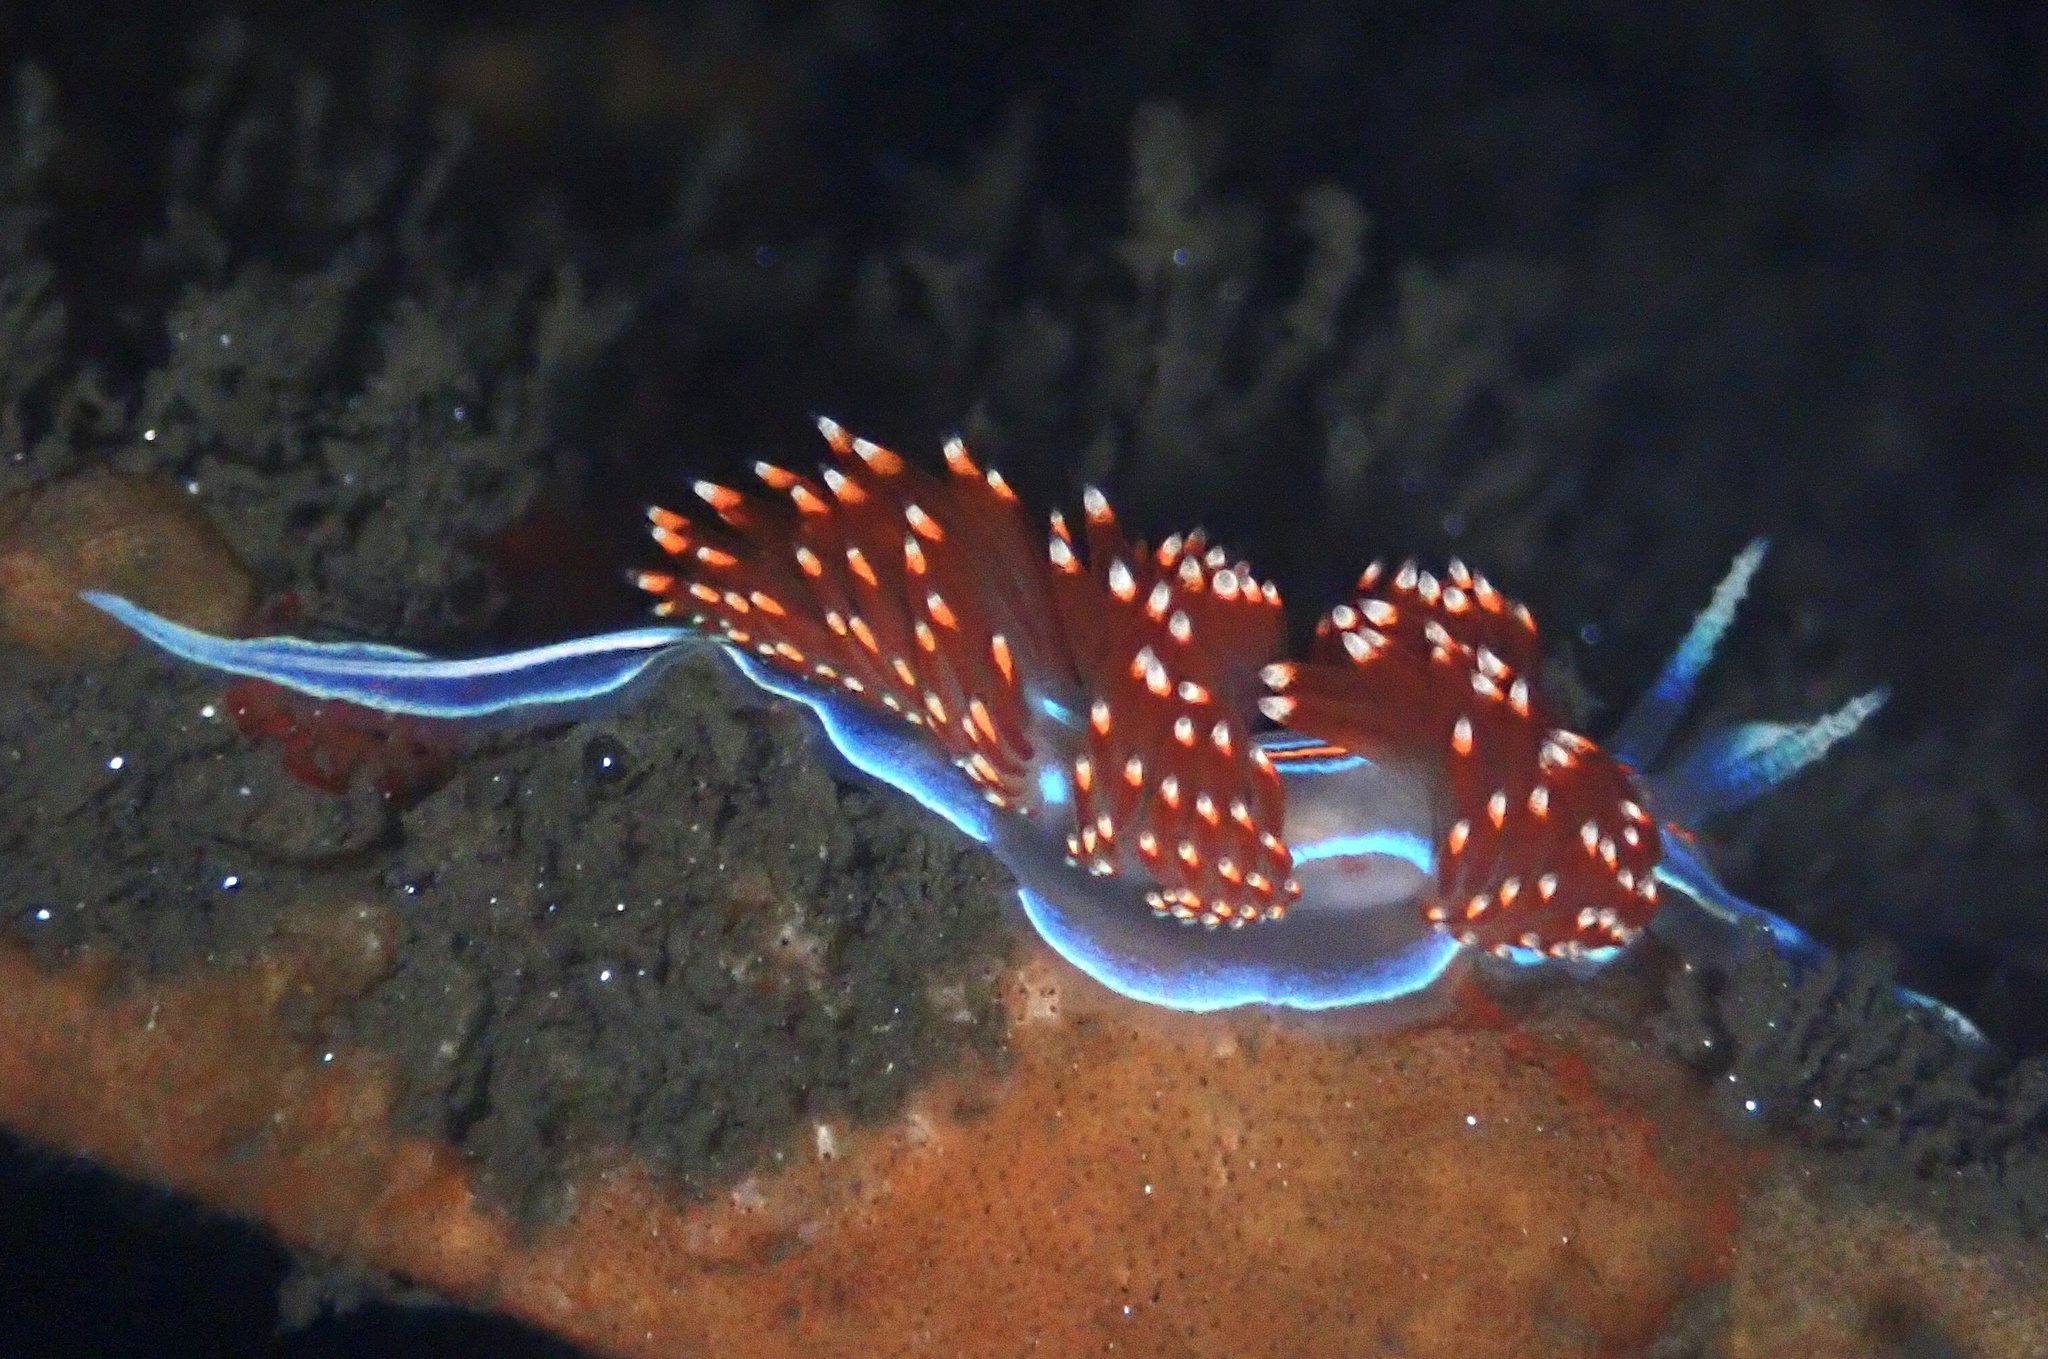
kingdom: Animalia
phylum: Mollusca
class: Gastropoda
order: Nudibranchia
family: Myrrhinidae
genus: Hermissenda
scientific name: Hermissenda opalescens
